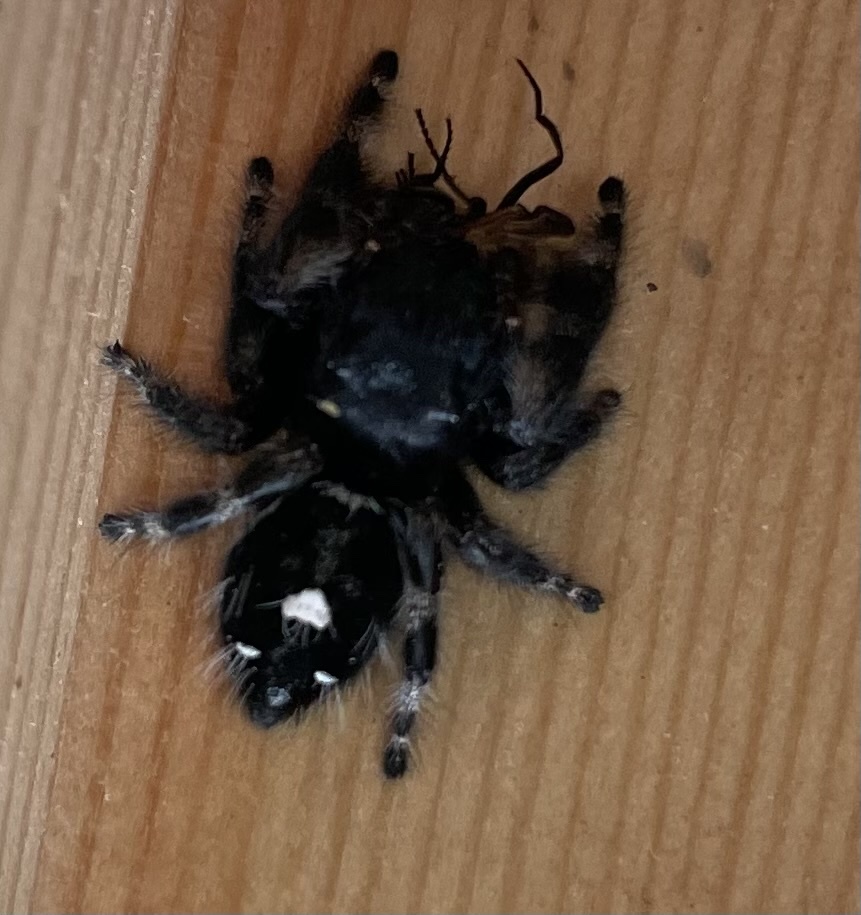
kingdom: Animalia
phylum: Arthropoda
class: Arachnida
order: Araneae
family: Salticidae
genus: Phidippus
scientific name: Phidippus audax
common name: Bold jumper
